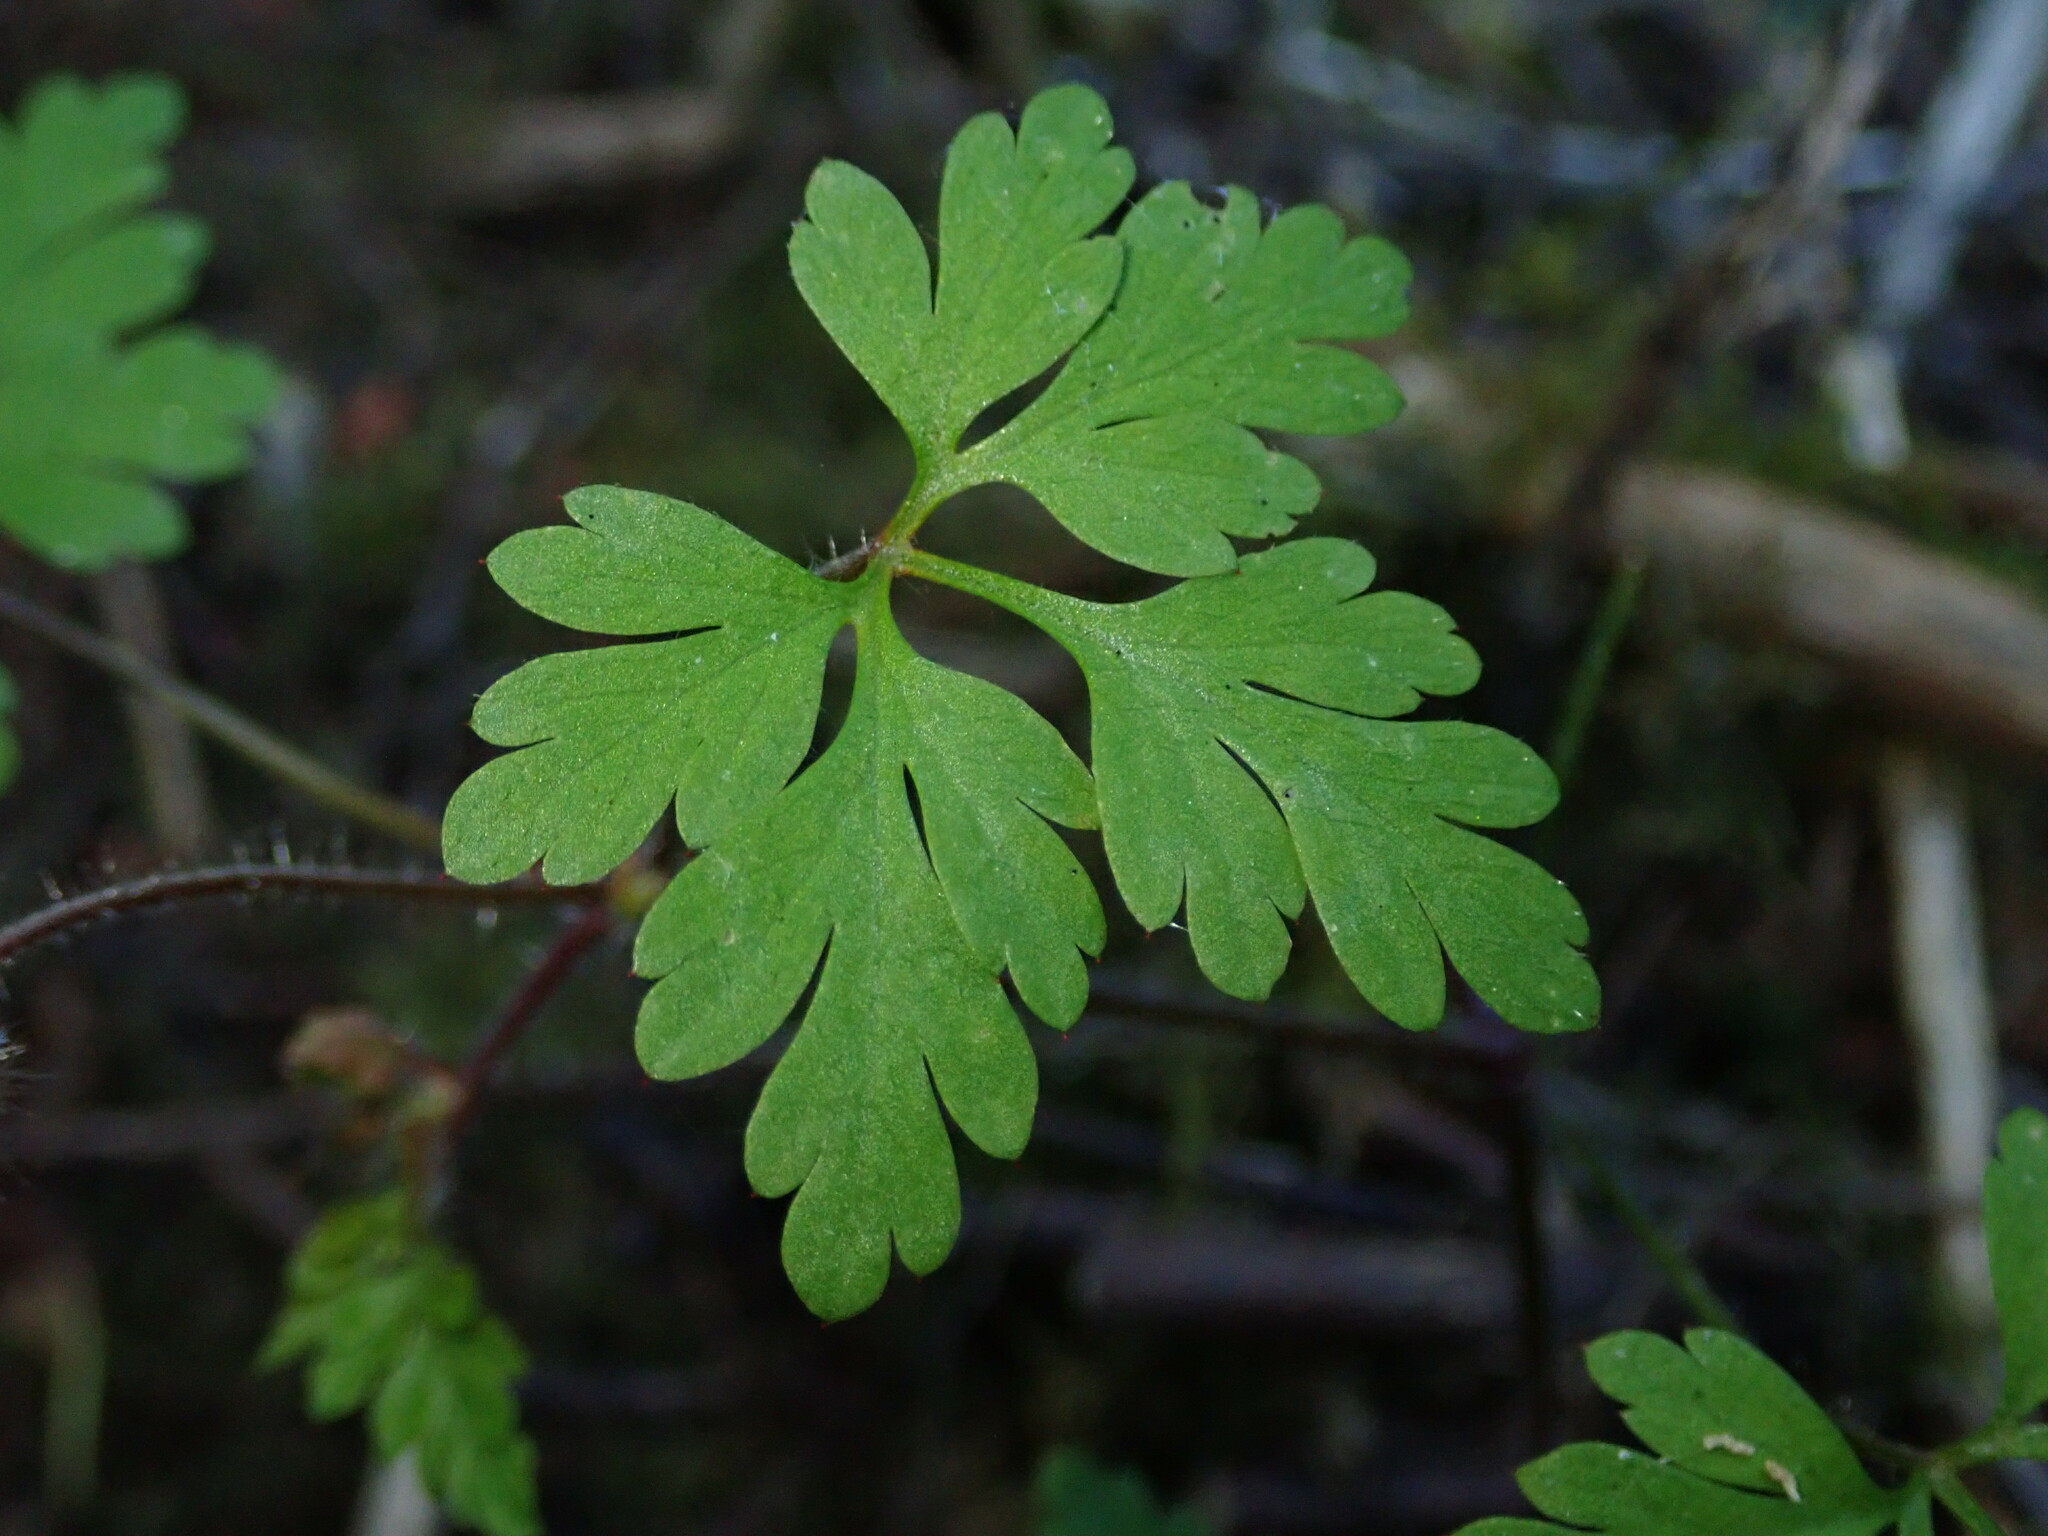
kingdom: Plantae
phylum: Tracheophyta
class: Magnoliopsida
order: Geraniales
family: Geraniaceae
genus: Geranium
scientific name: Geranium robertianum
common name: Herb-robert
